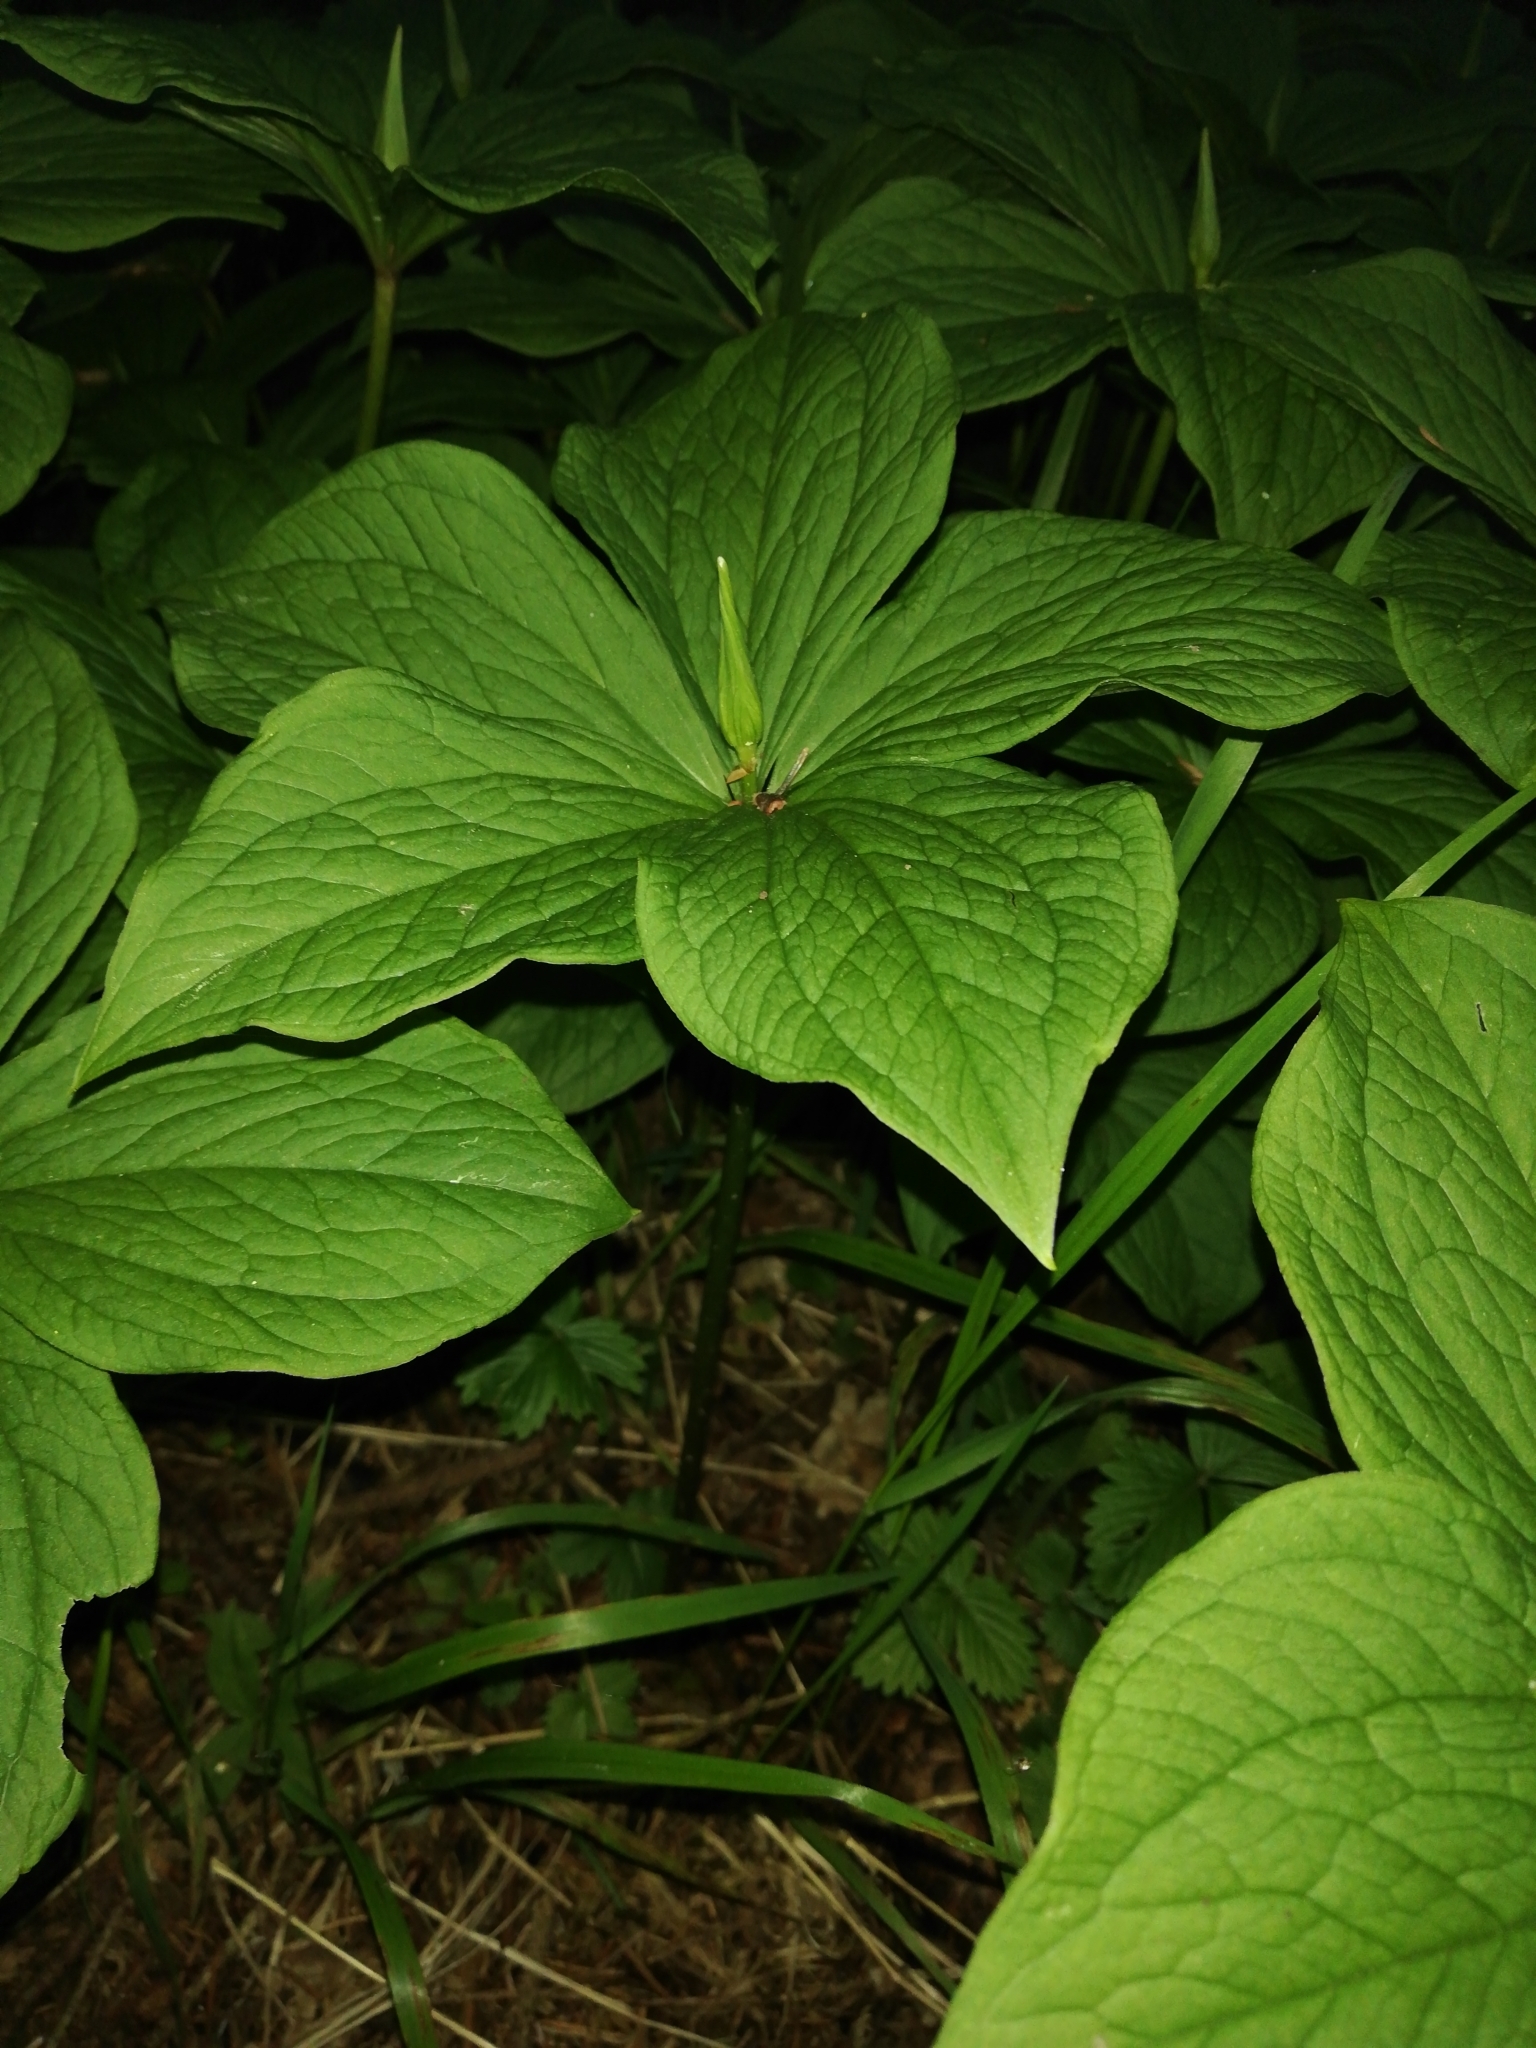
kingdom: Plantae
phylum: Tracheophyta
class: Liliopsida
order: Liliales
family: Melanthiaceae
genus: Paris
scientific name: Paris quadrifolia
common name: Herb-paris
